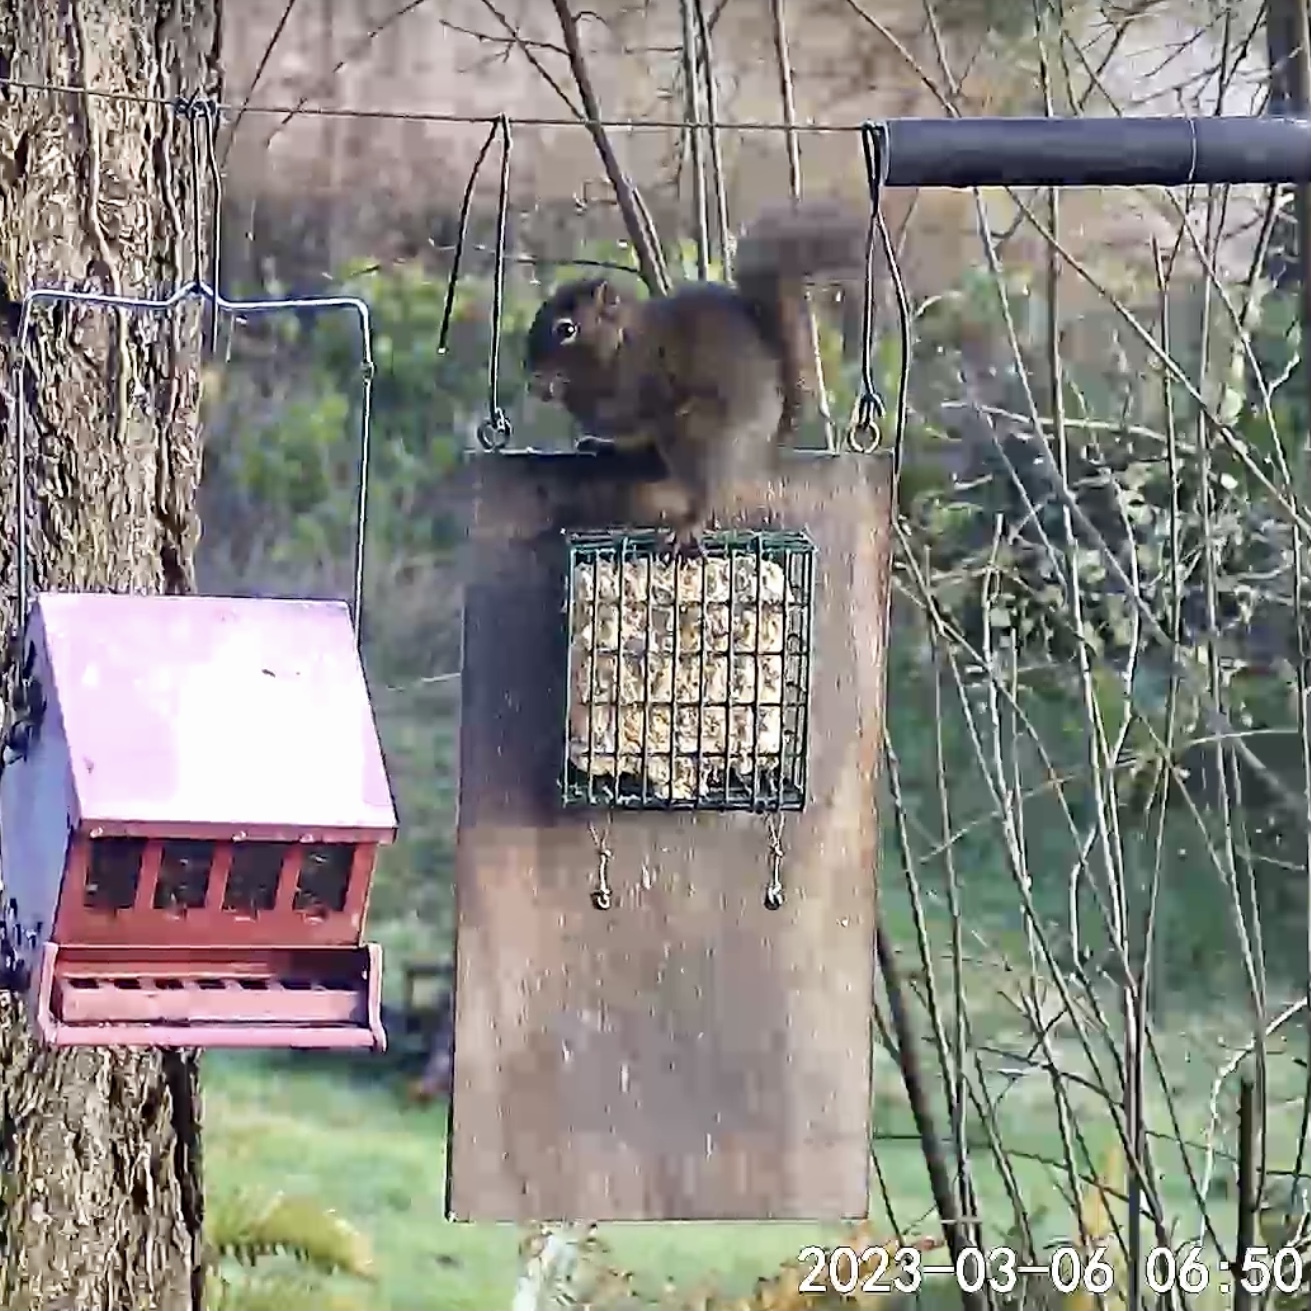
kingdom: Animalia
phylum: Chordata
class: Mammalia
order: Rodentia
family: Sciuridae
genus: Tamiasciurus
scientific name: Tamiasciurus douglasii
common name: Douglas's squirrel
